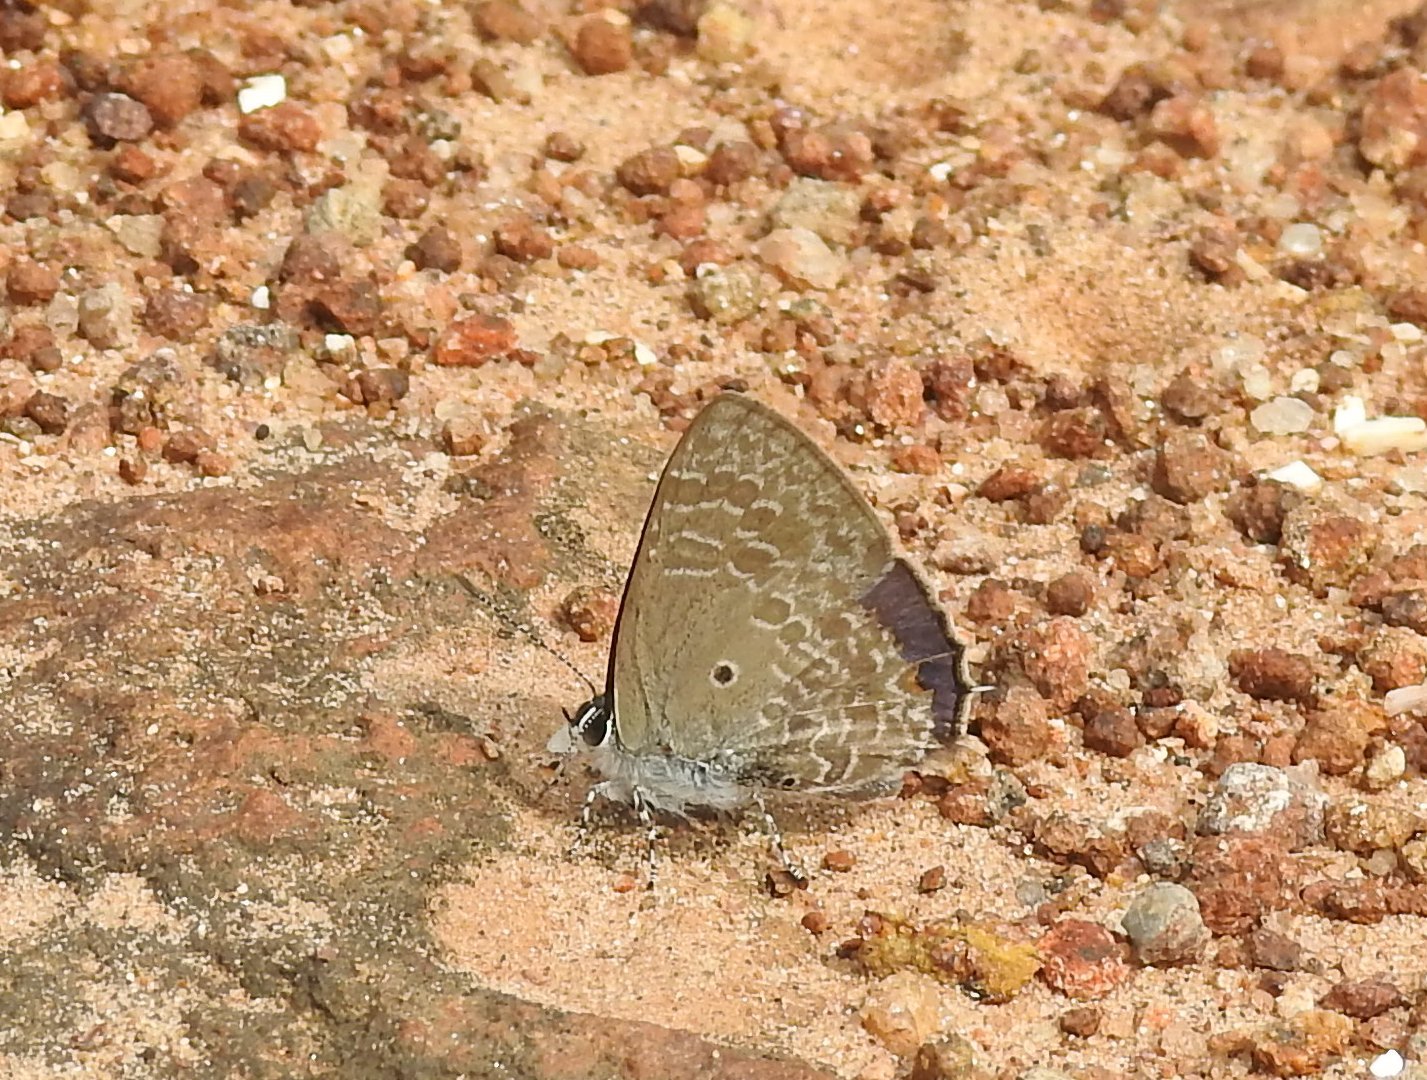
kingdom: Animalia
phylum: Arthropoda
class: Insecta
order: Lepidoptera
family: Lycaenidae
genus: Anthene
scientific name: Anthene lycaenina
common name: Pointed ciliate blue
